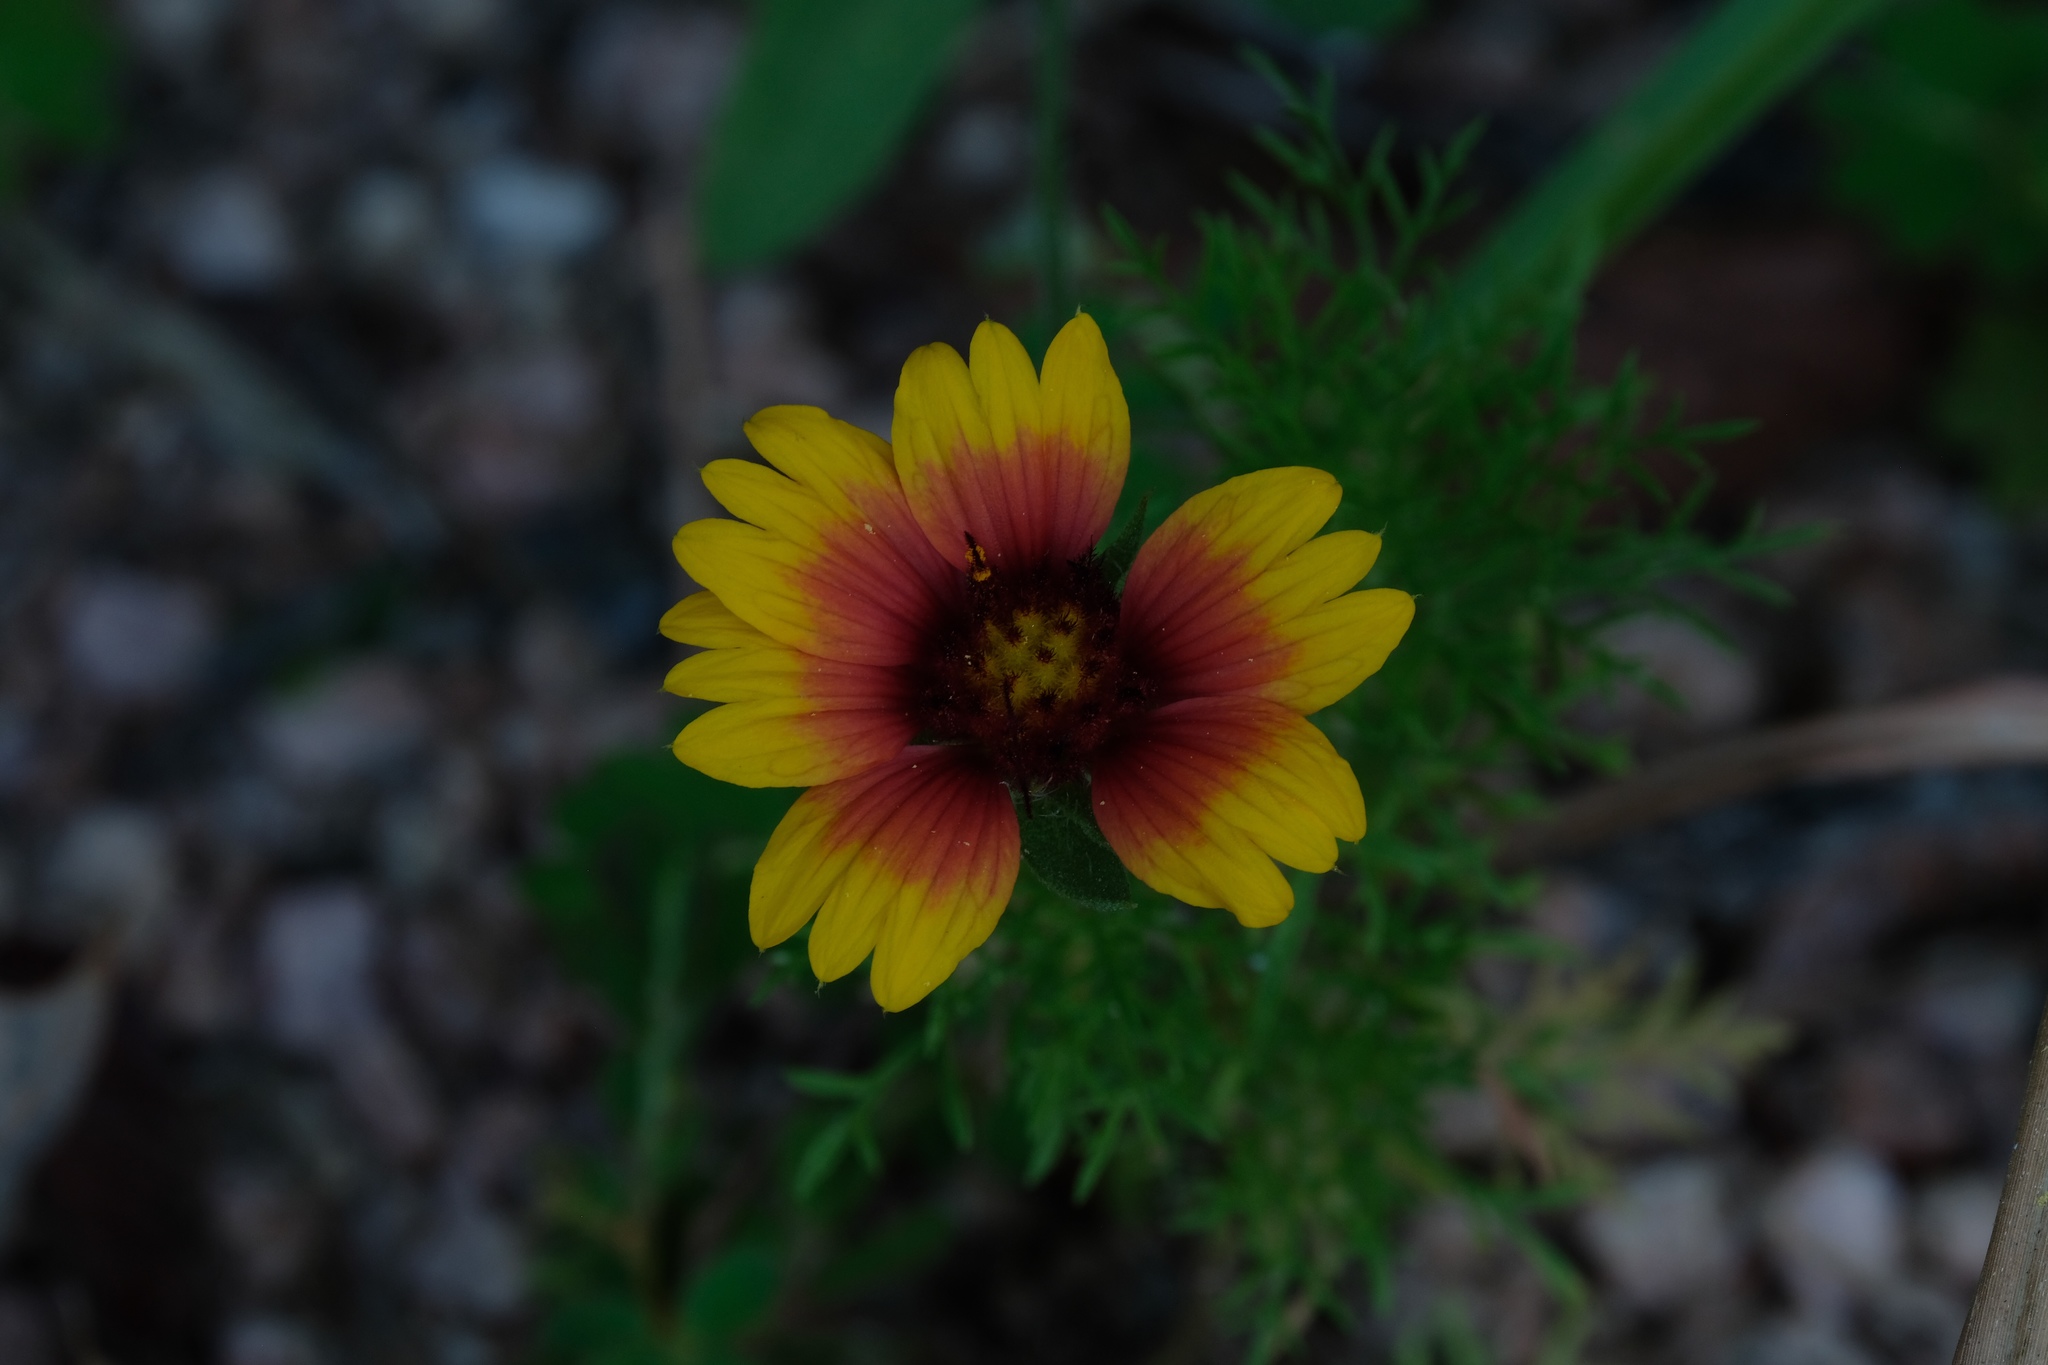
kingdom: Plantae
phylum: Tracheophyta
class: Magnoliopsida
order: Asterales
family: Asteraceae
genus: Gaillardia
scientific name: Gaillardia pulchella
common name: Firewheel
